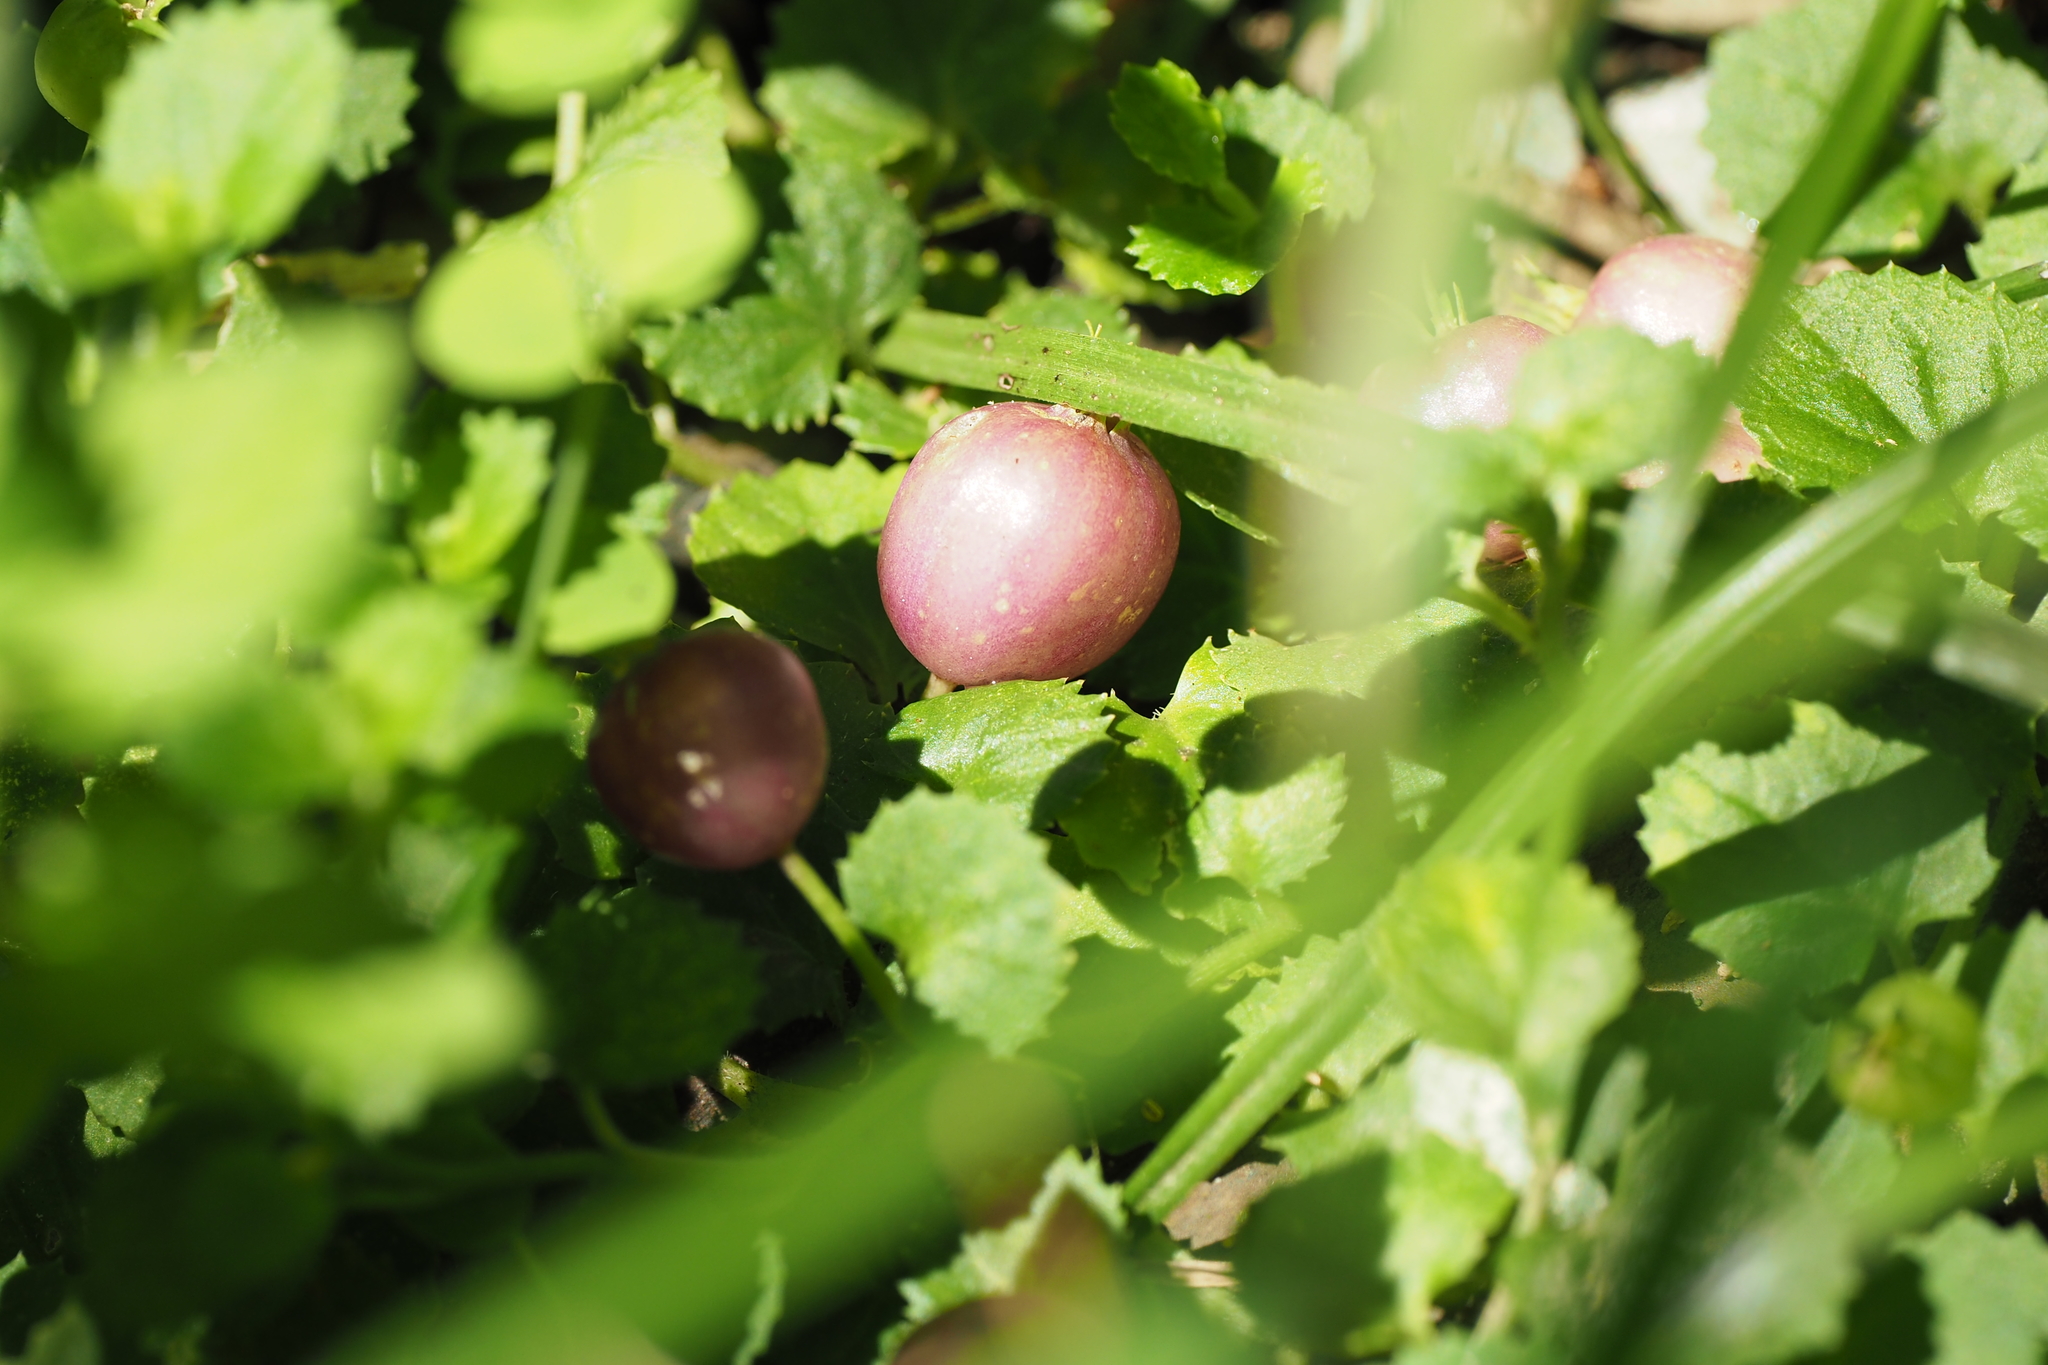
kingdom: Plantae
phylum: Tracheophyta
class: Magnoliopsida
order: Asterales
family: Campanulaceae
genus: Lobelia
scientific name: Lobelia nummularia
